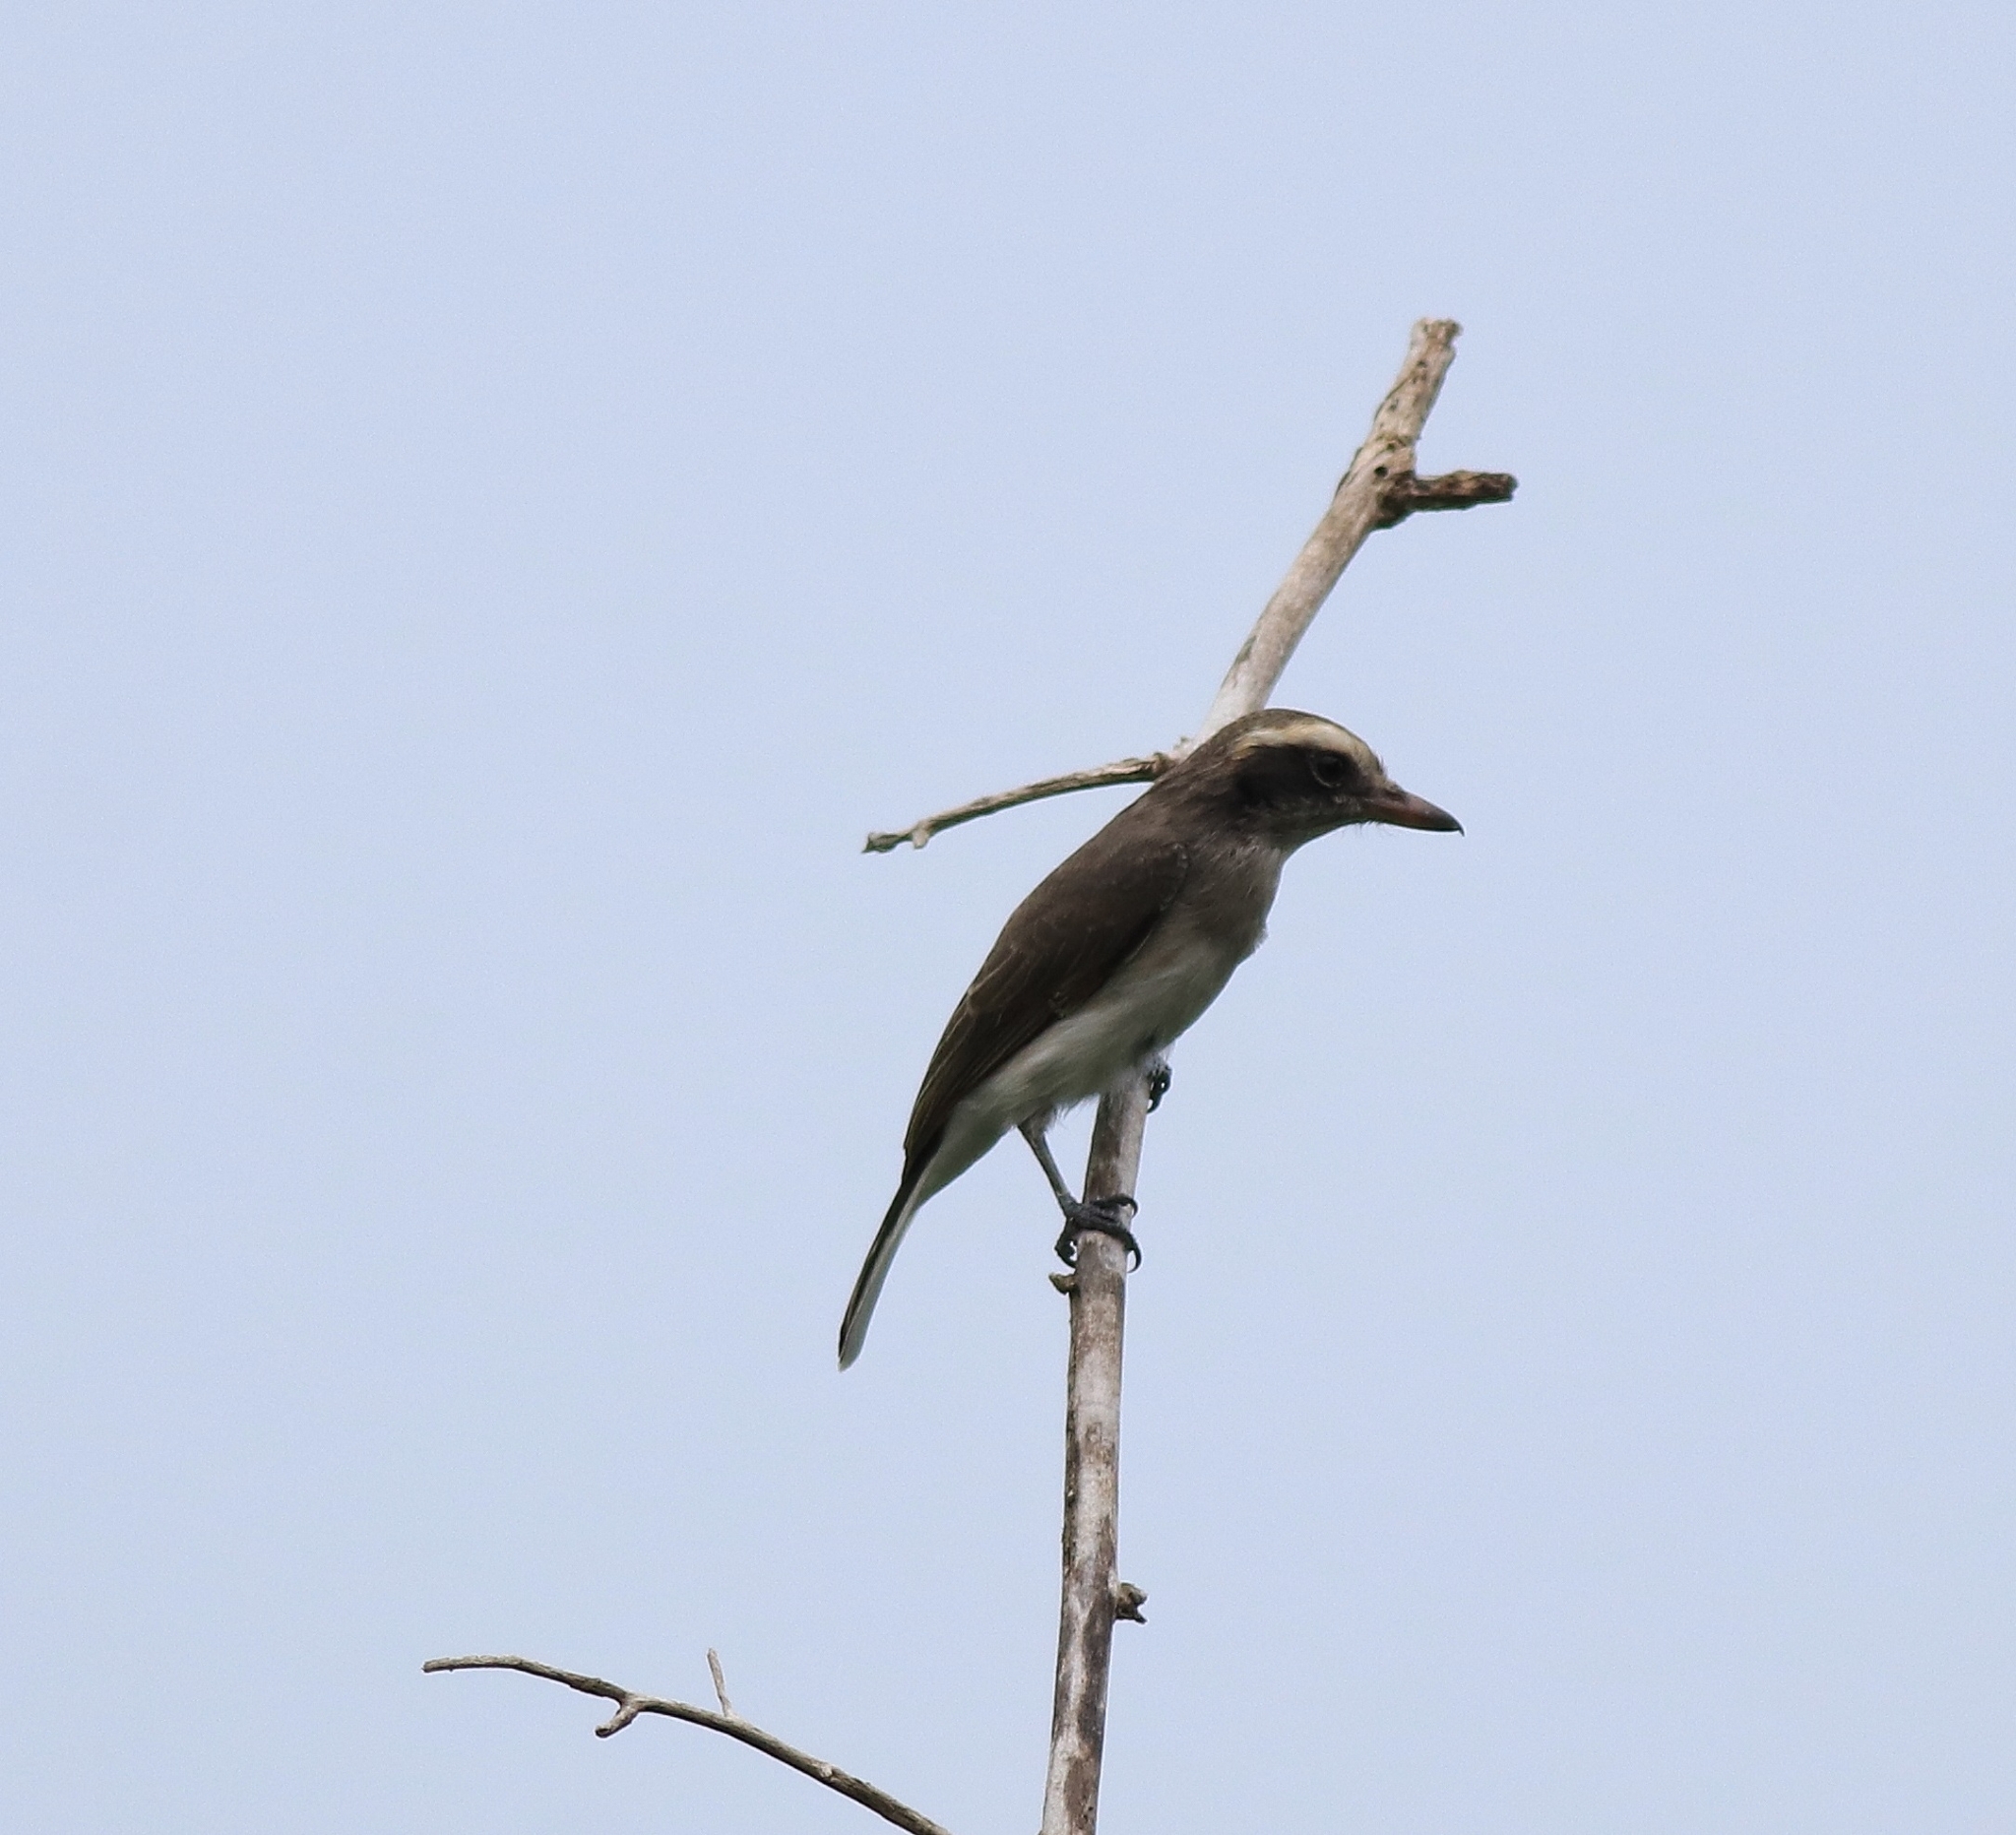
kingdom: Animalia
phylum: Chordata
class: Aves
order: Passeriformes
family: Tephrodornithidae
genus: Tephrodornis
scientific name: Tephrodornis pondicerianus
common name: Common woodshrike
